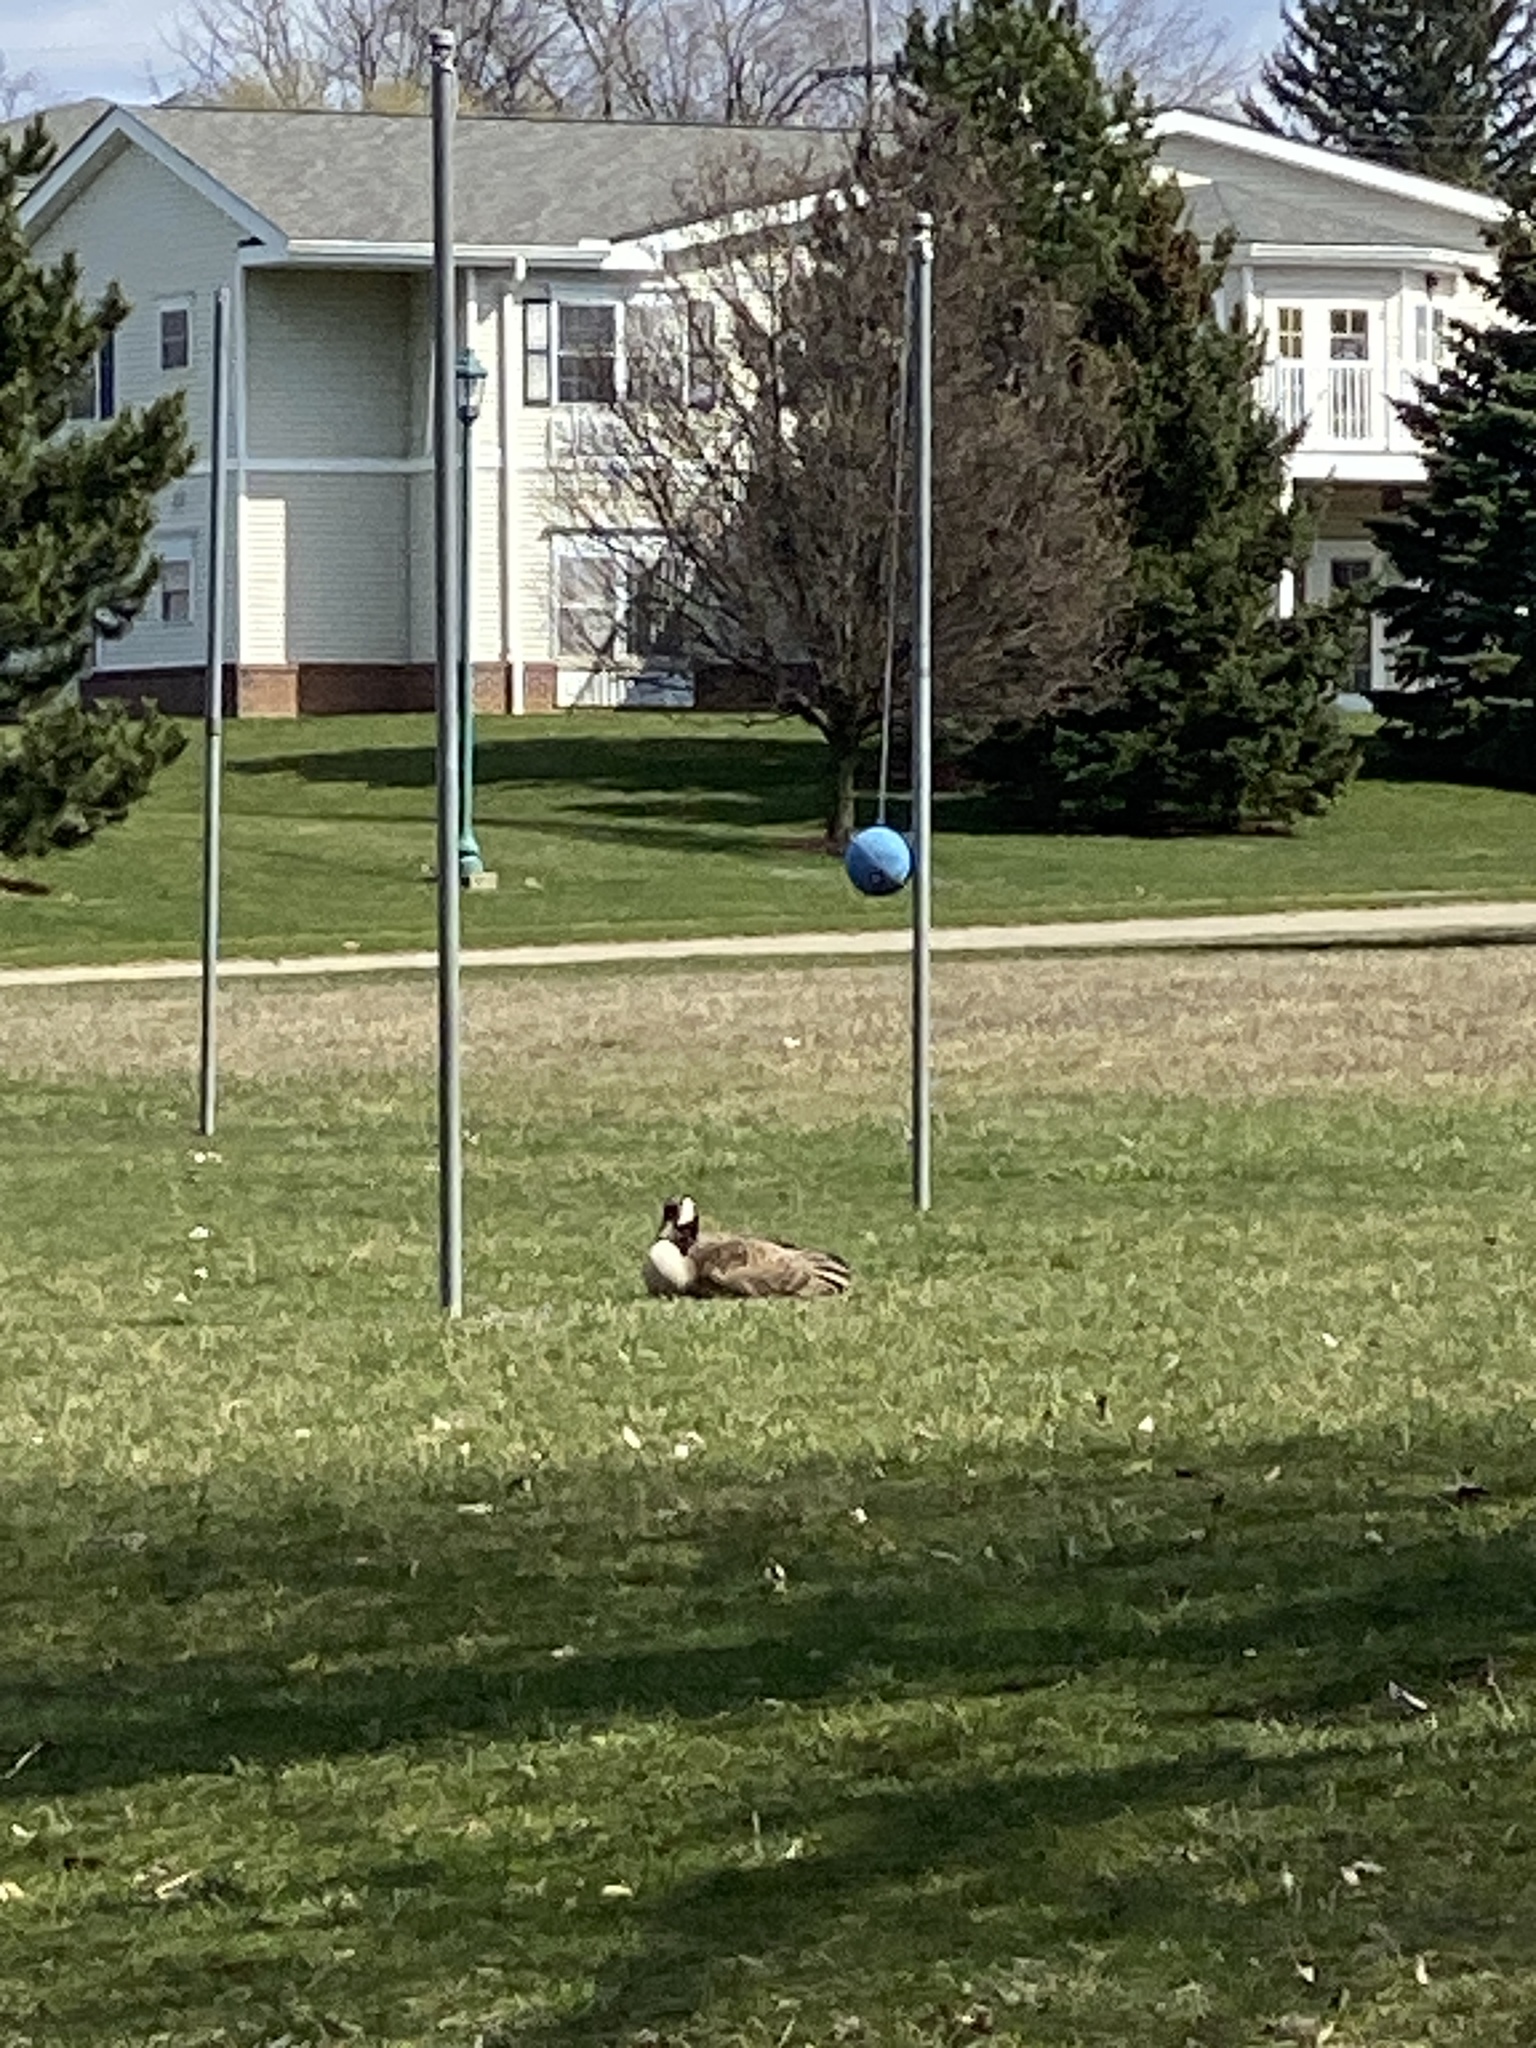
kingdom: Animalia
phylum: Chordata
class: Aves
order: Anseriformes
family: Anatidae
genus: Branta
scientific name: Branta canadensis
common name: Canada goose
